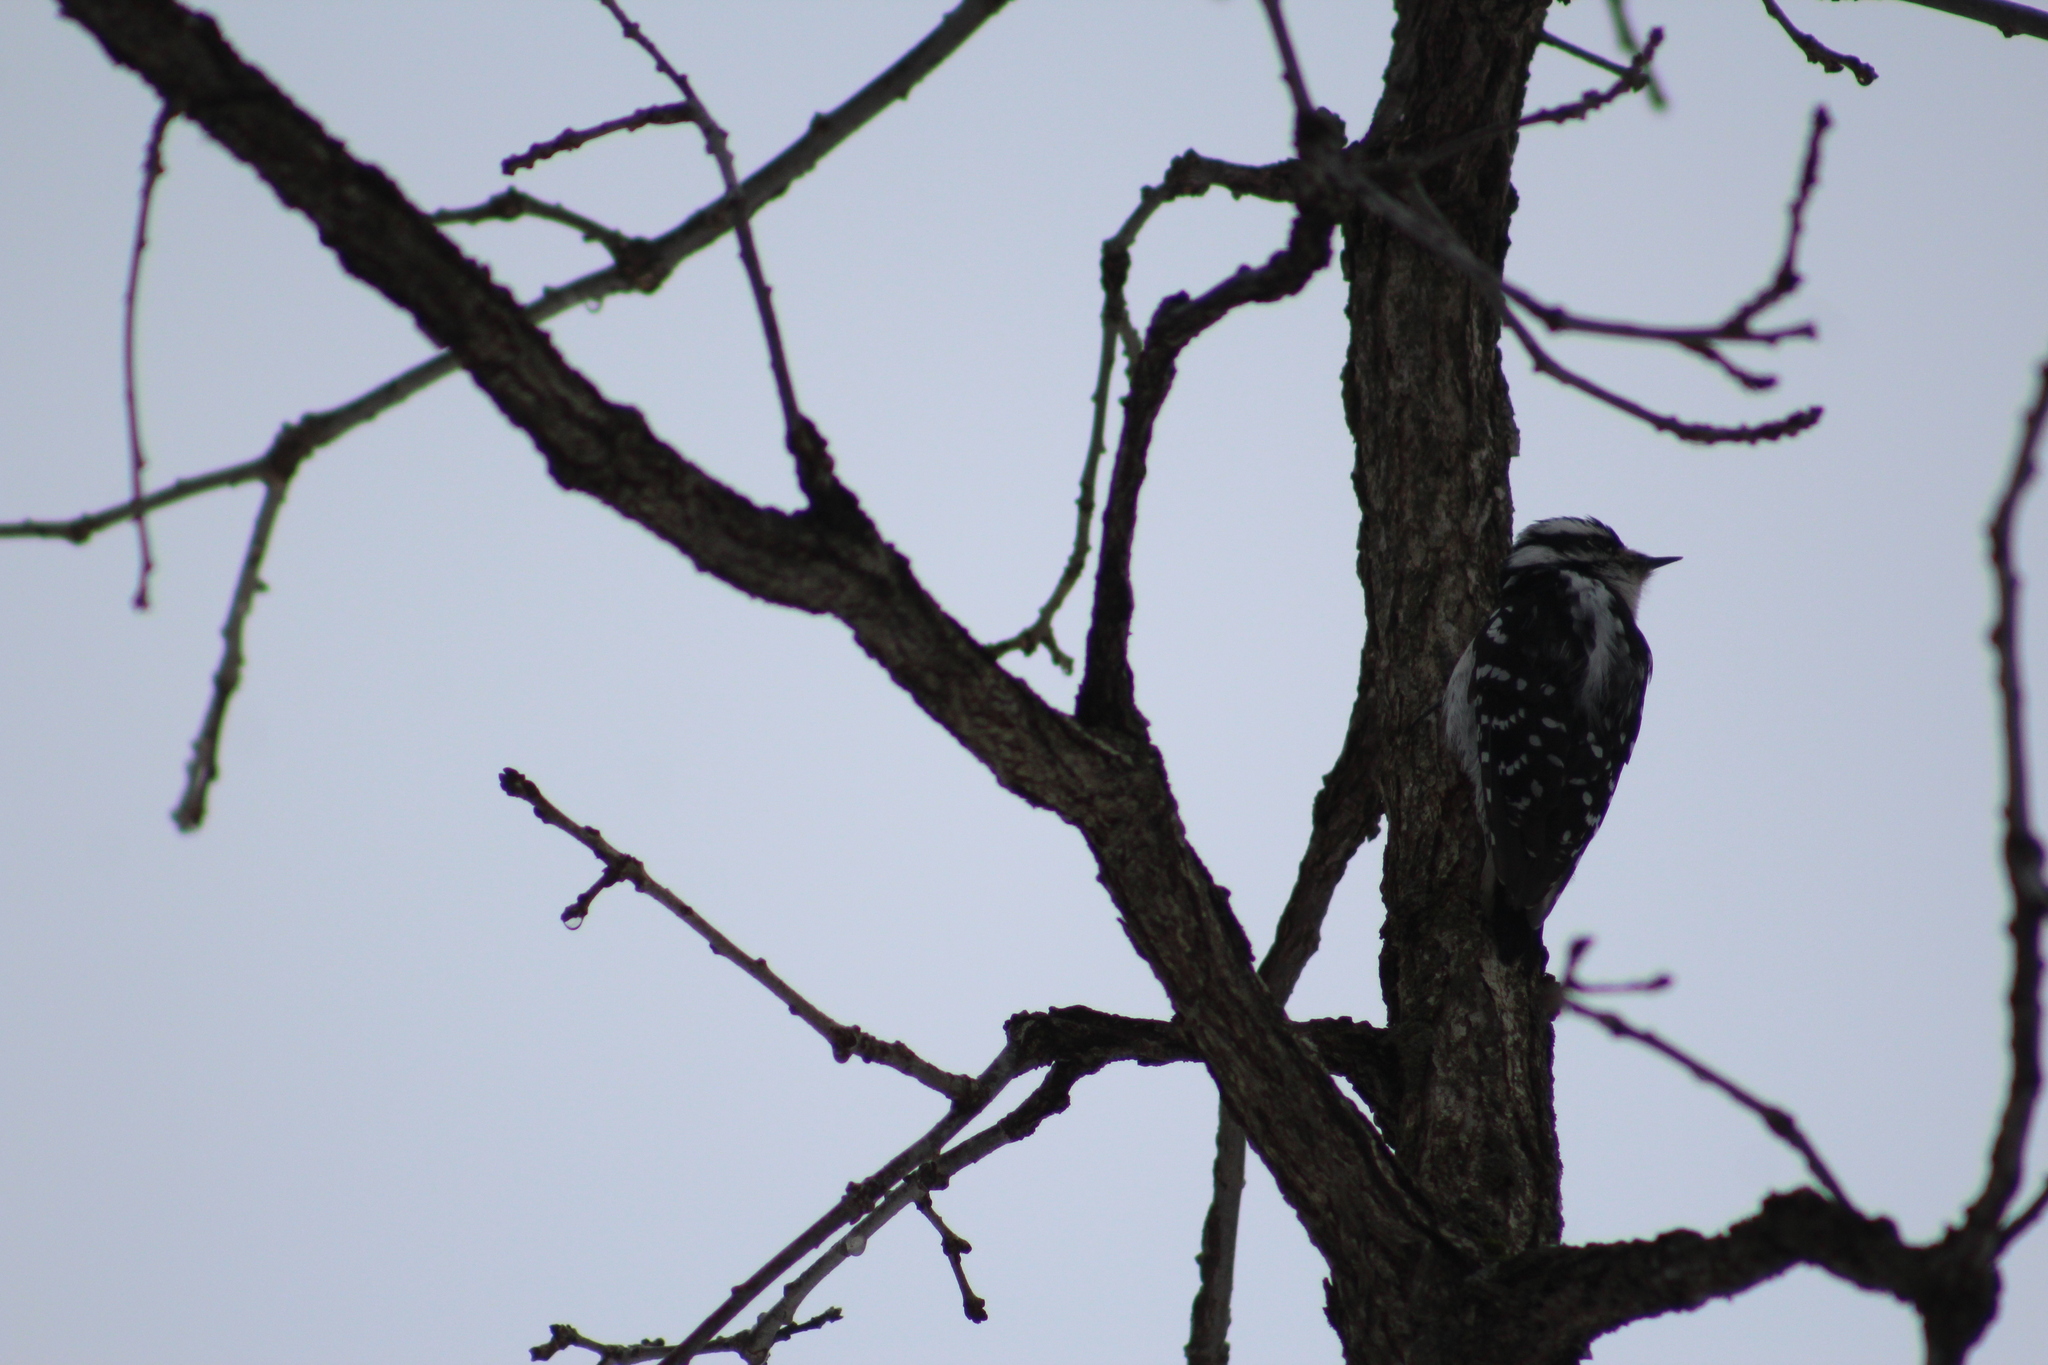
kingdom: Animalia
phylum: Chordata
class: Aves
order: Piciformes
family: Picidae
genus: Dryobates
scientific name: Dryobates pubescens
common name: Downy woodpecker
